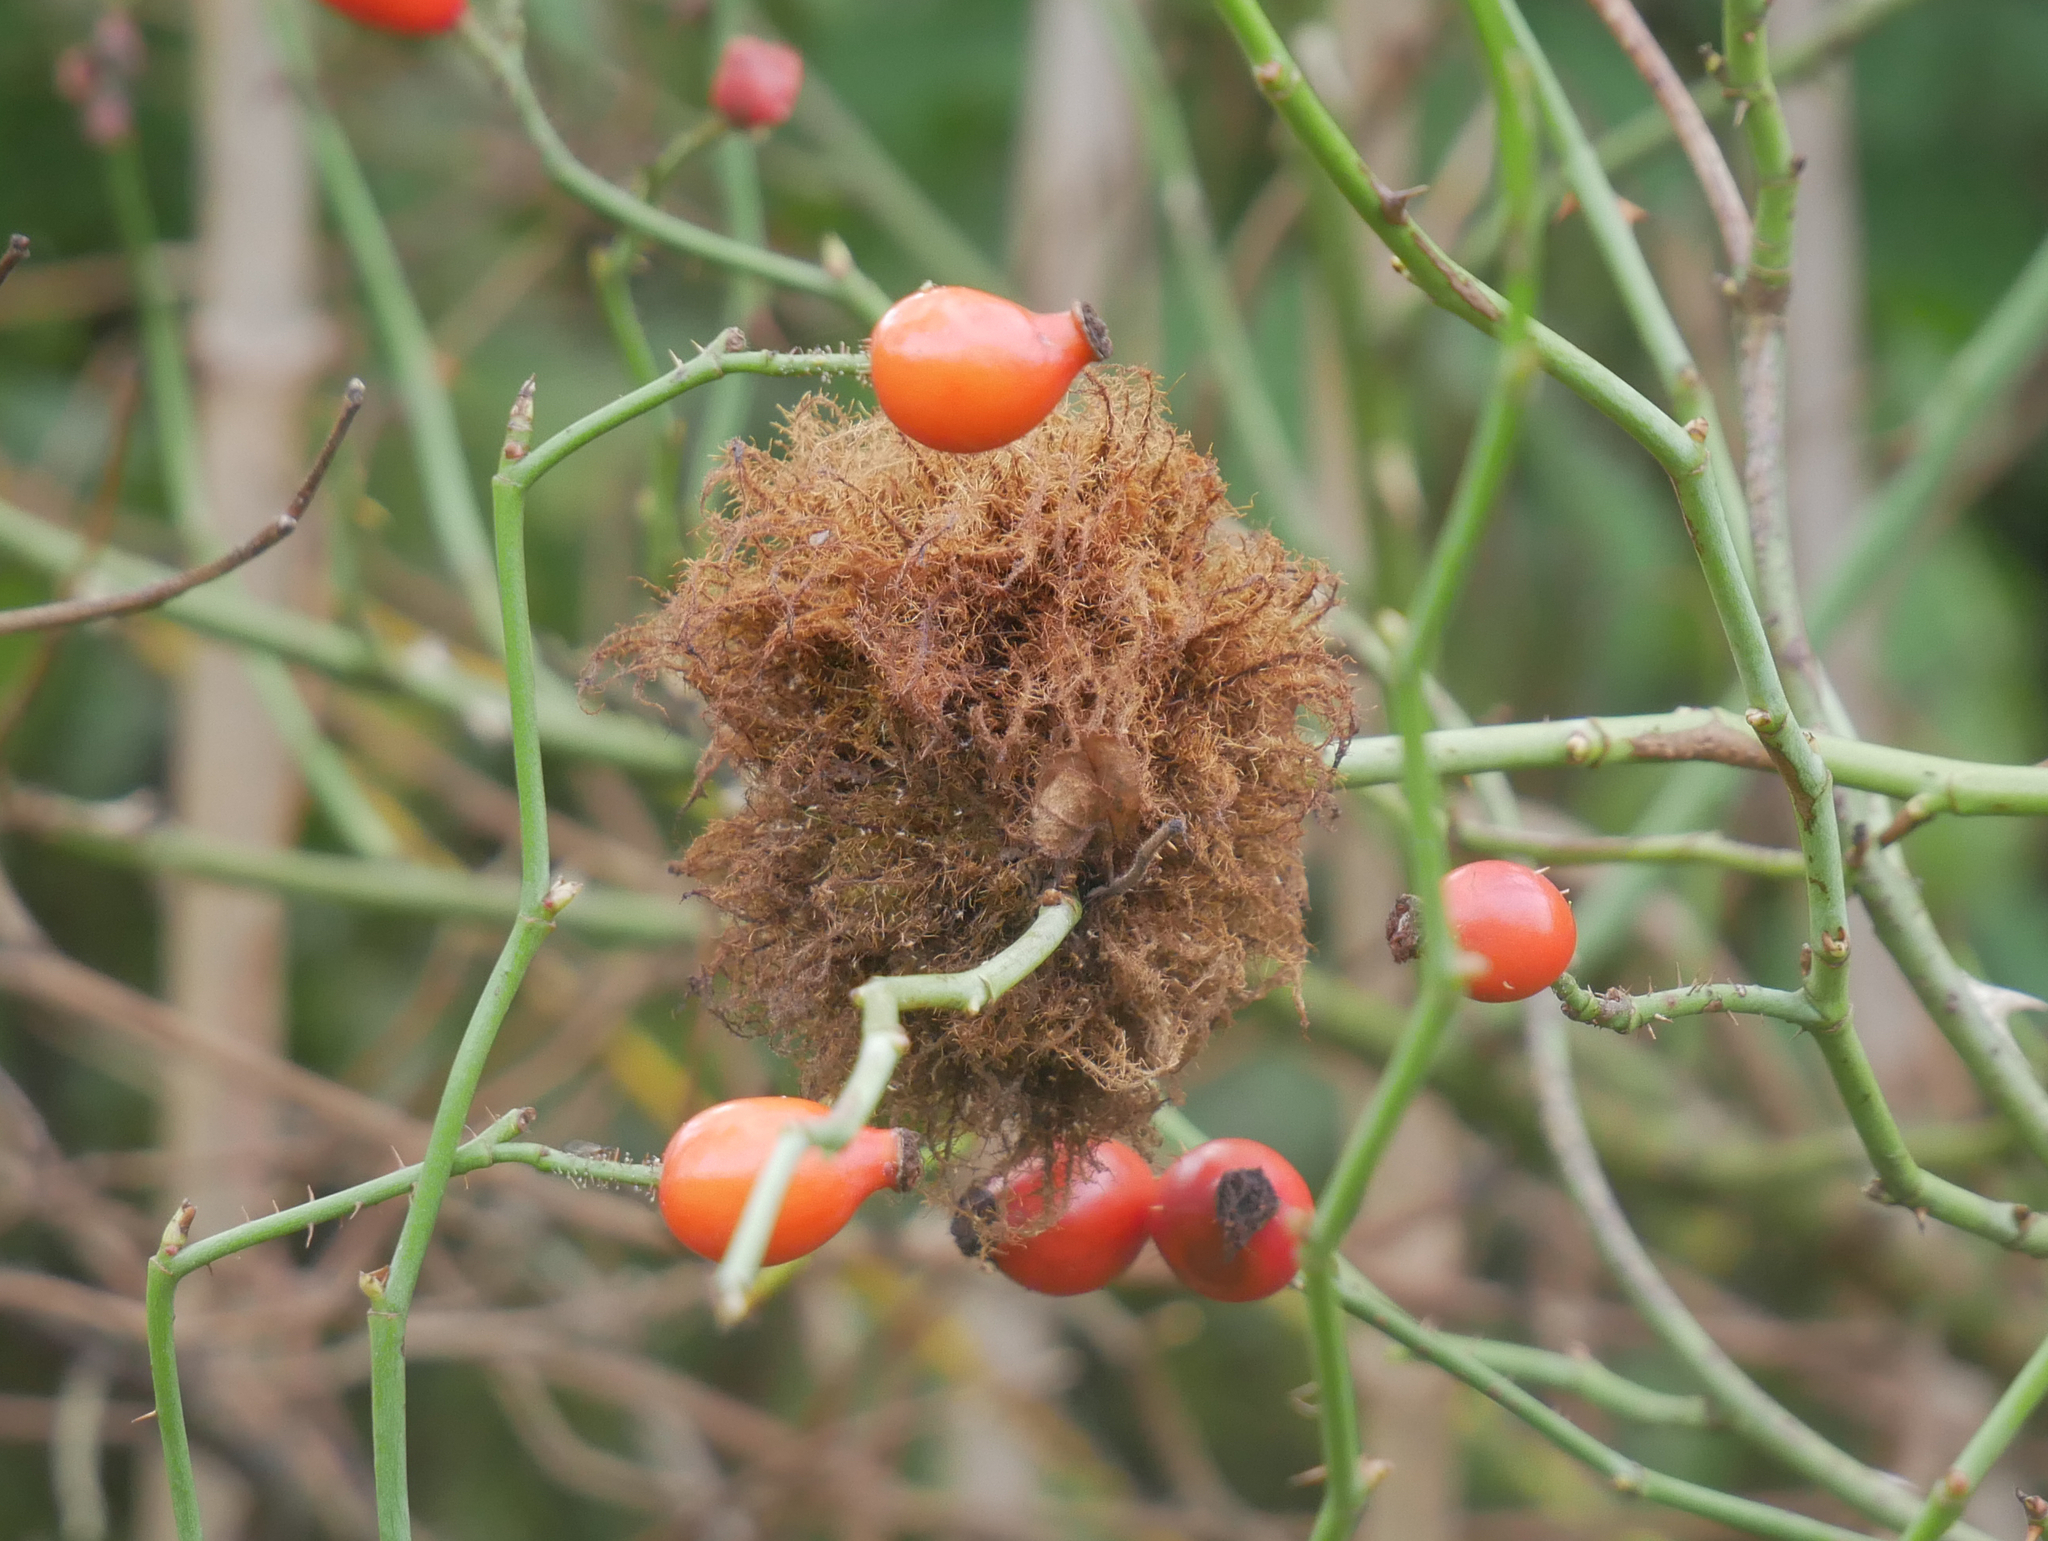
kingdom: Animalia
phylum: Arthropoda
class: Insecta
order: Hymenoptera
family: Cynipidae
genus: Diplolepis
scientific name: Diplolepis rosae
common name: Bedeguar gall
